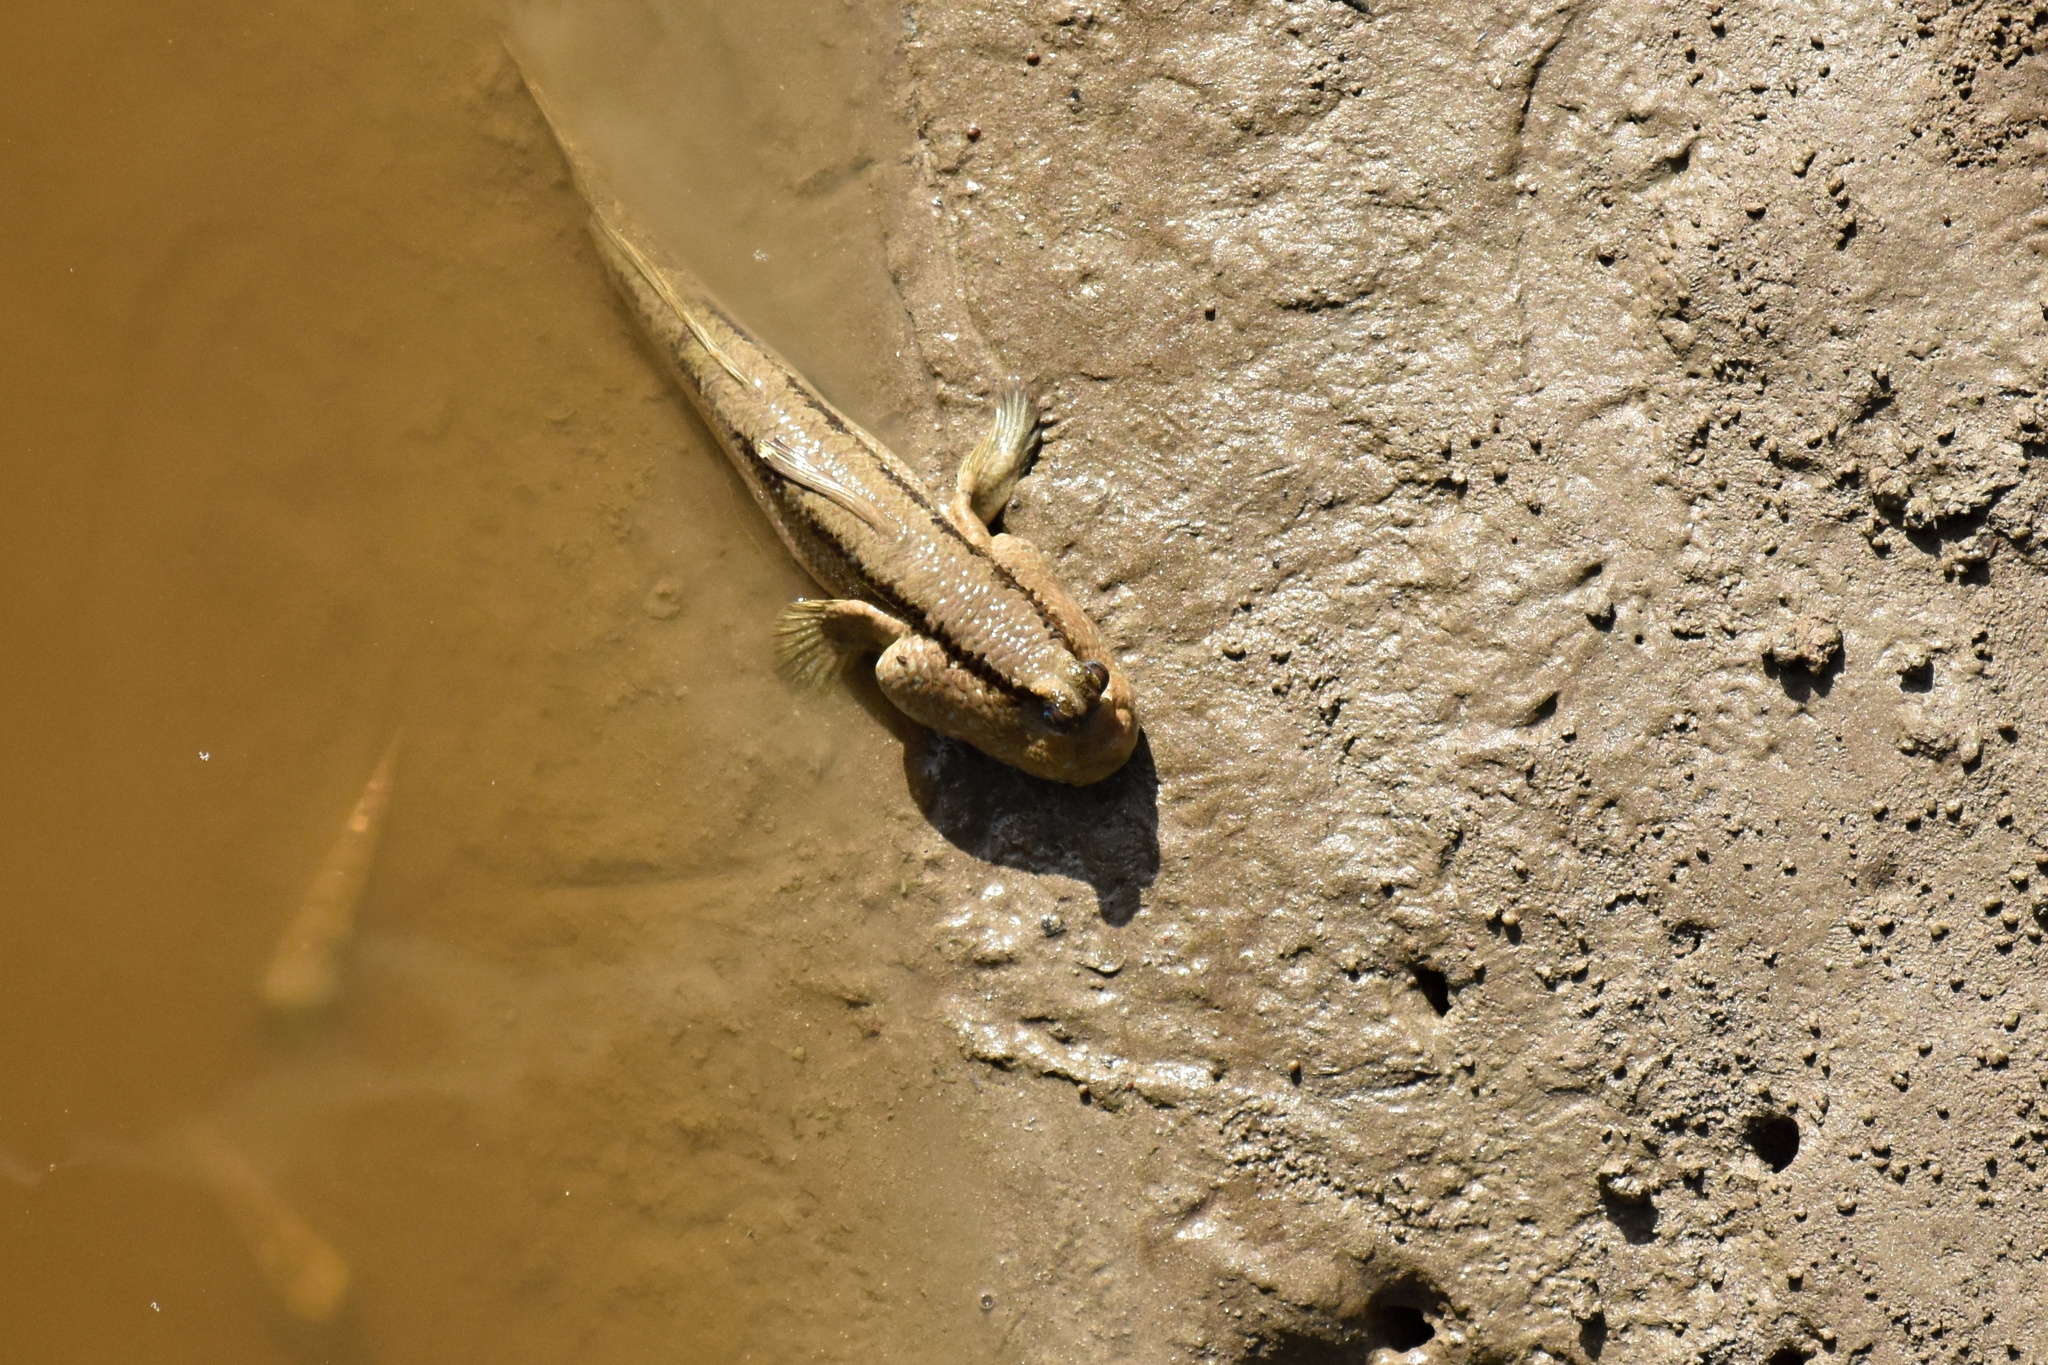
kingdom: Animalia
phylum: Chordata
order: Perciformes
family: Gobiidae
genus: Periophthalmodon
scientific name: Periophthalmodon schlosseri
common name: Giant mudskipper
